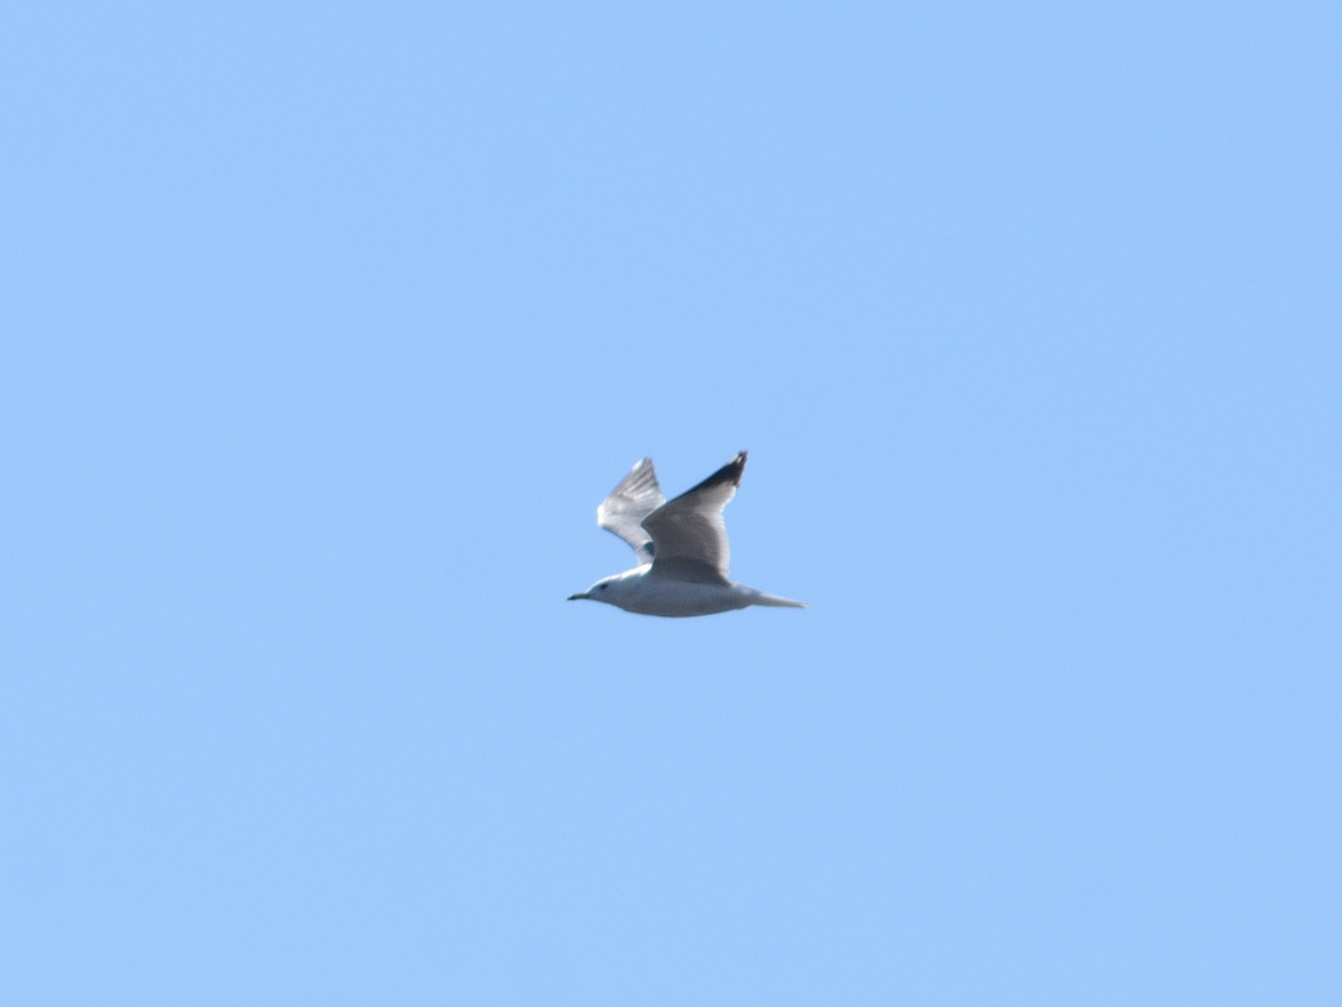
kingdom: Animalia
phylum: Chordata
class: Aves
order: Charadriiformes
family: Laridae
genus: Larus
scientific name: Larus canus
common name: Mew gull
